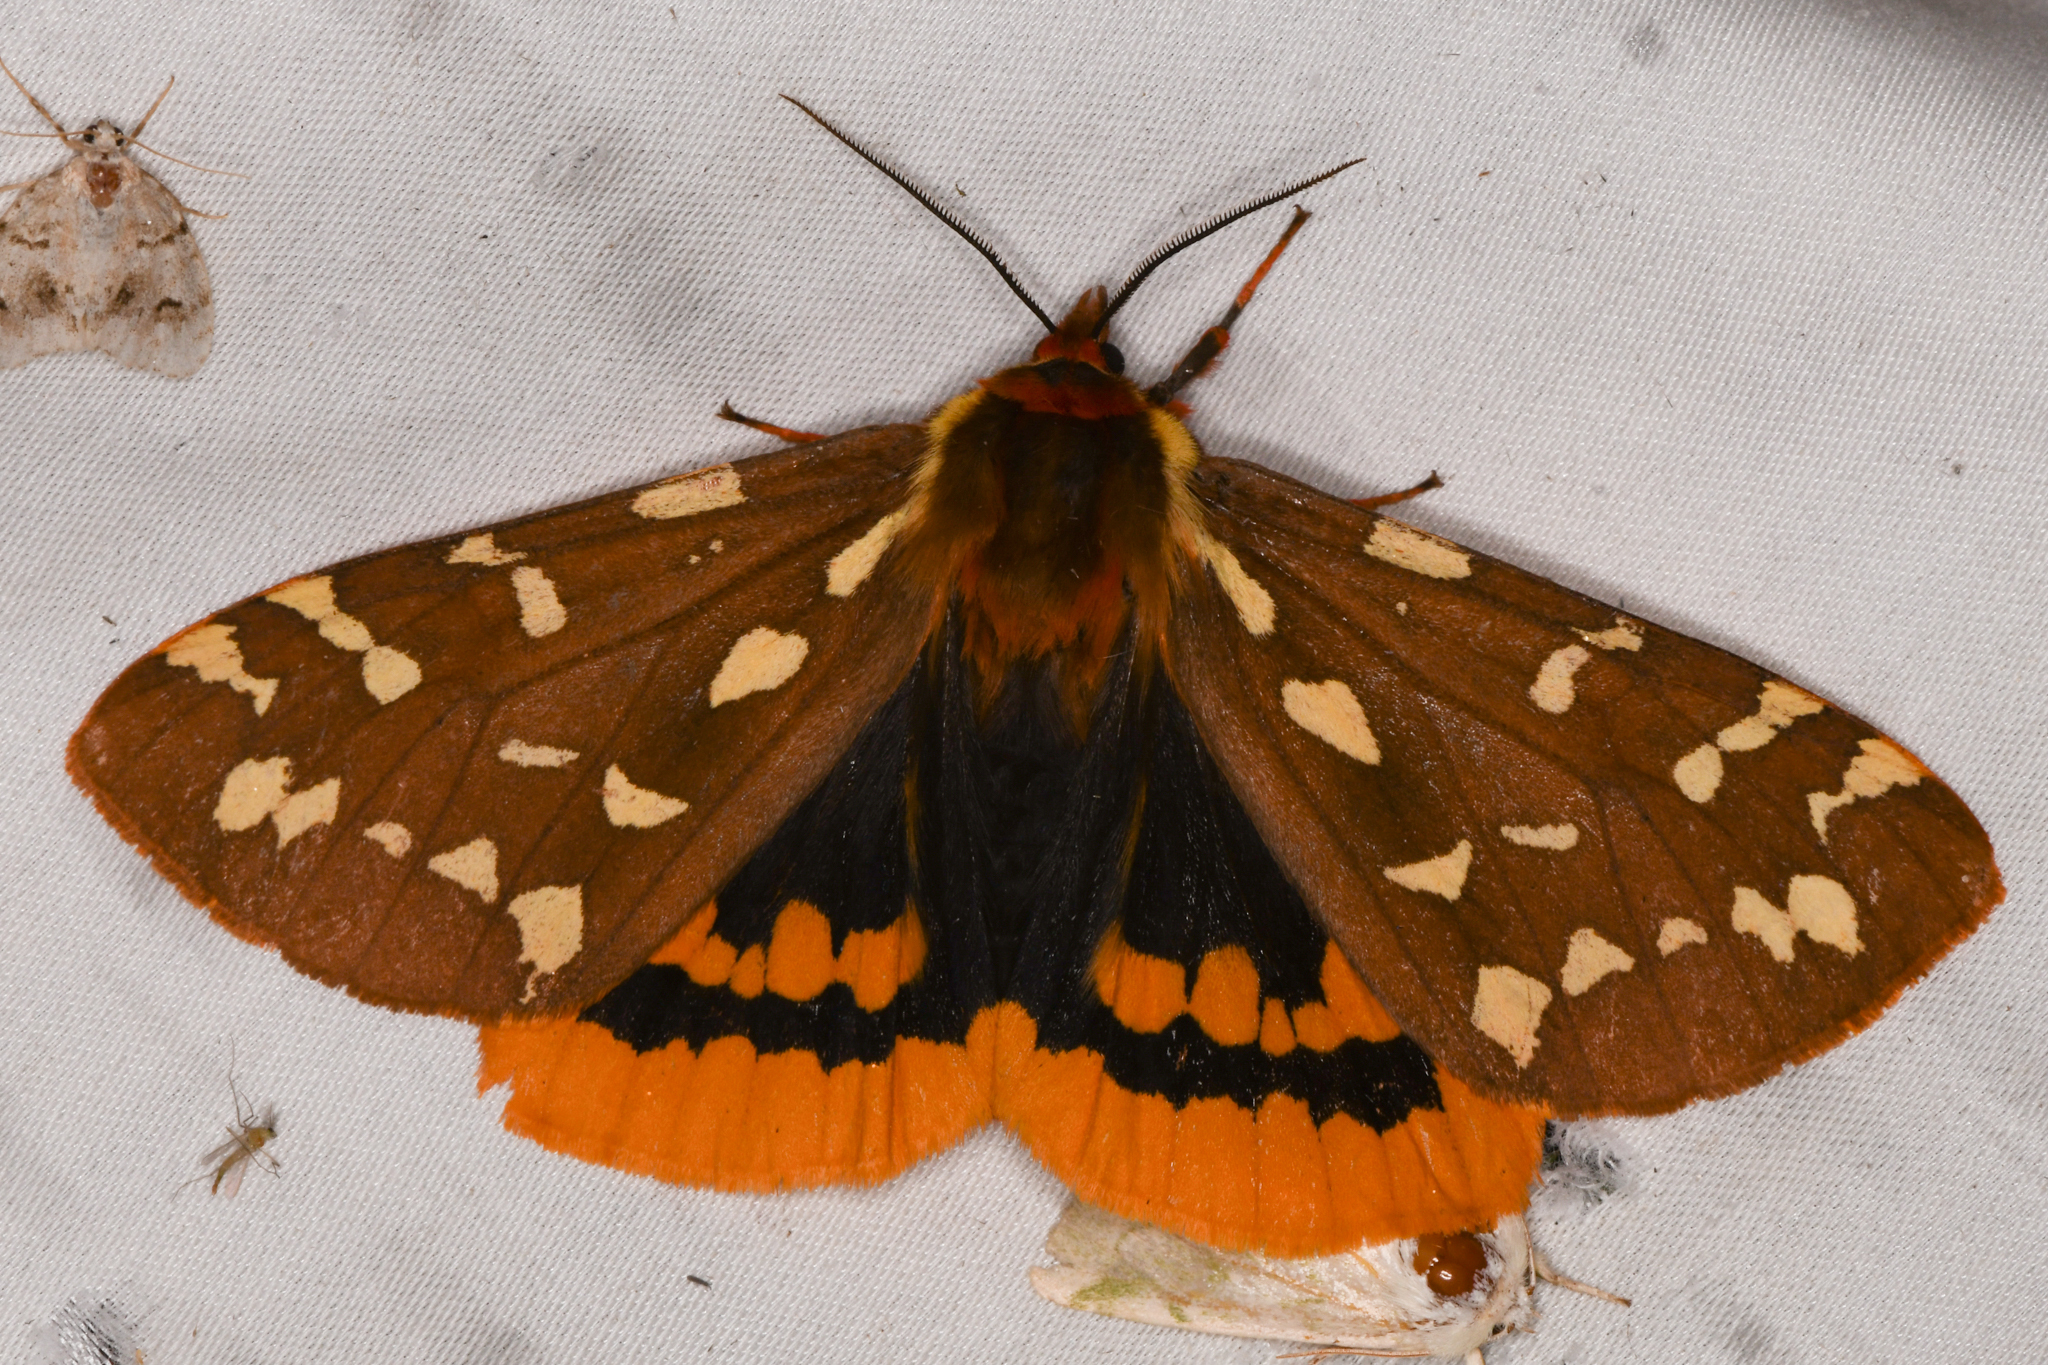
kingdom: Animalia
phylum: Arthropoda
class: Insecta
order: Lepidoptera
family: Erebidae
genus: Arctia
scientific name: Arctia parthenos
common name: St. lawrence tiger moth
